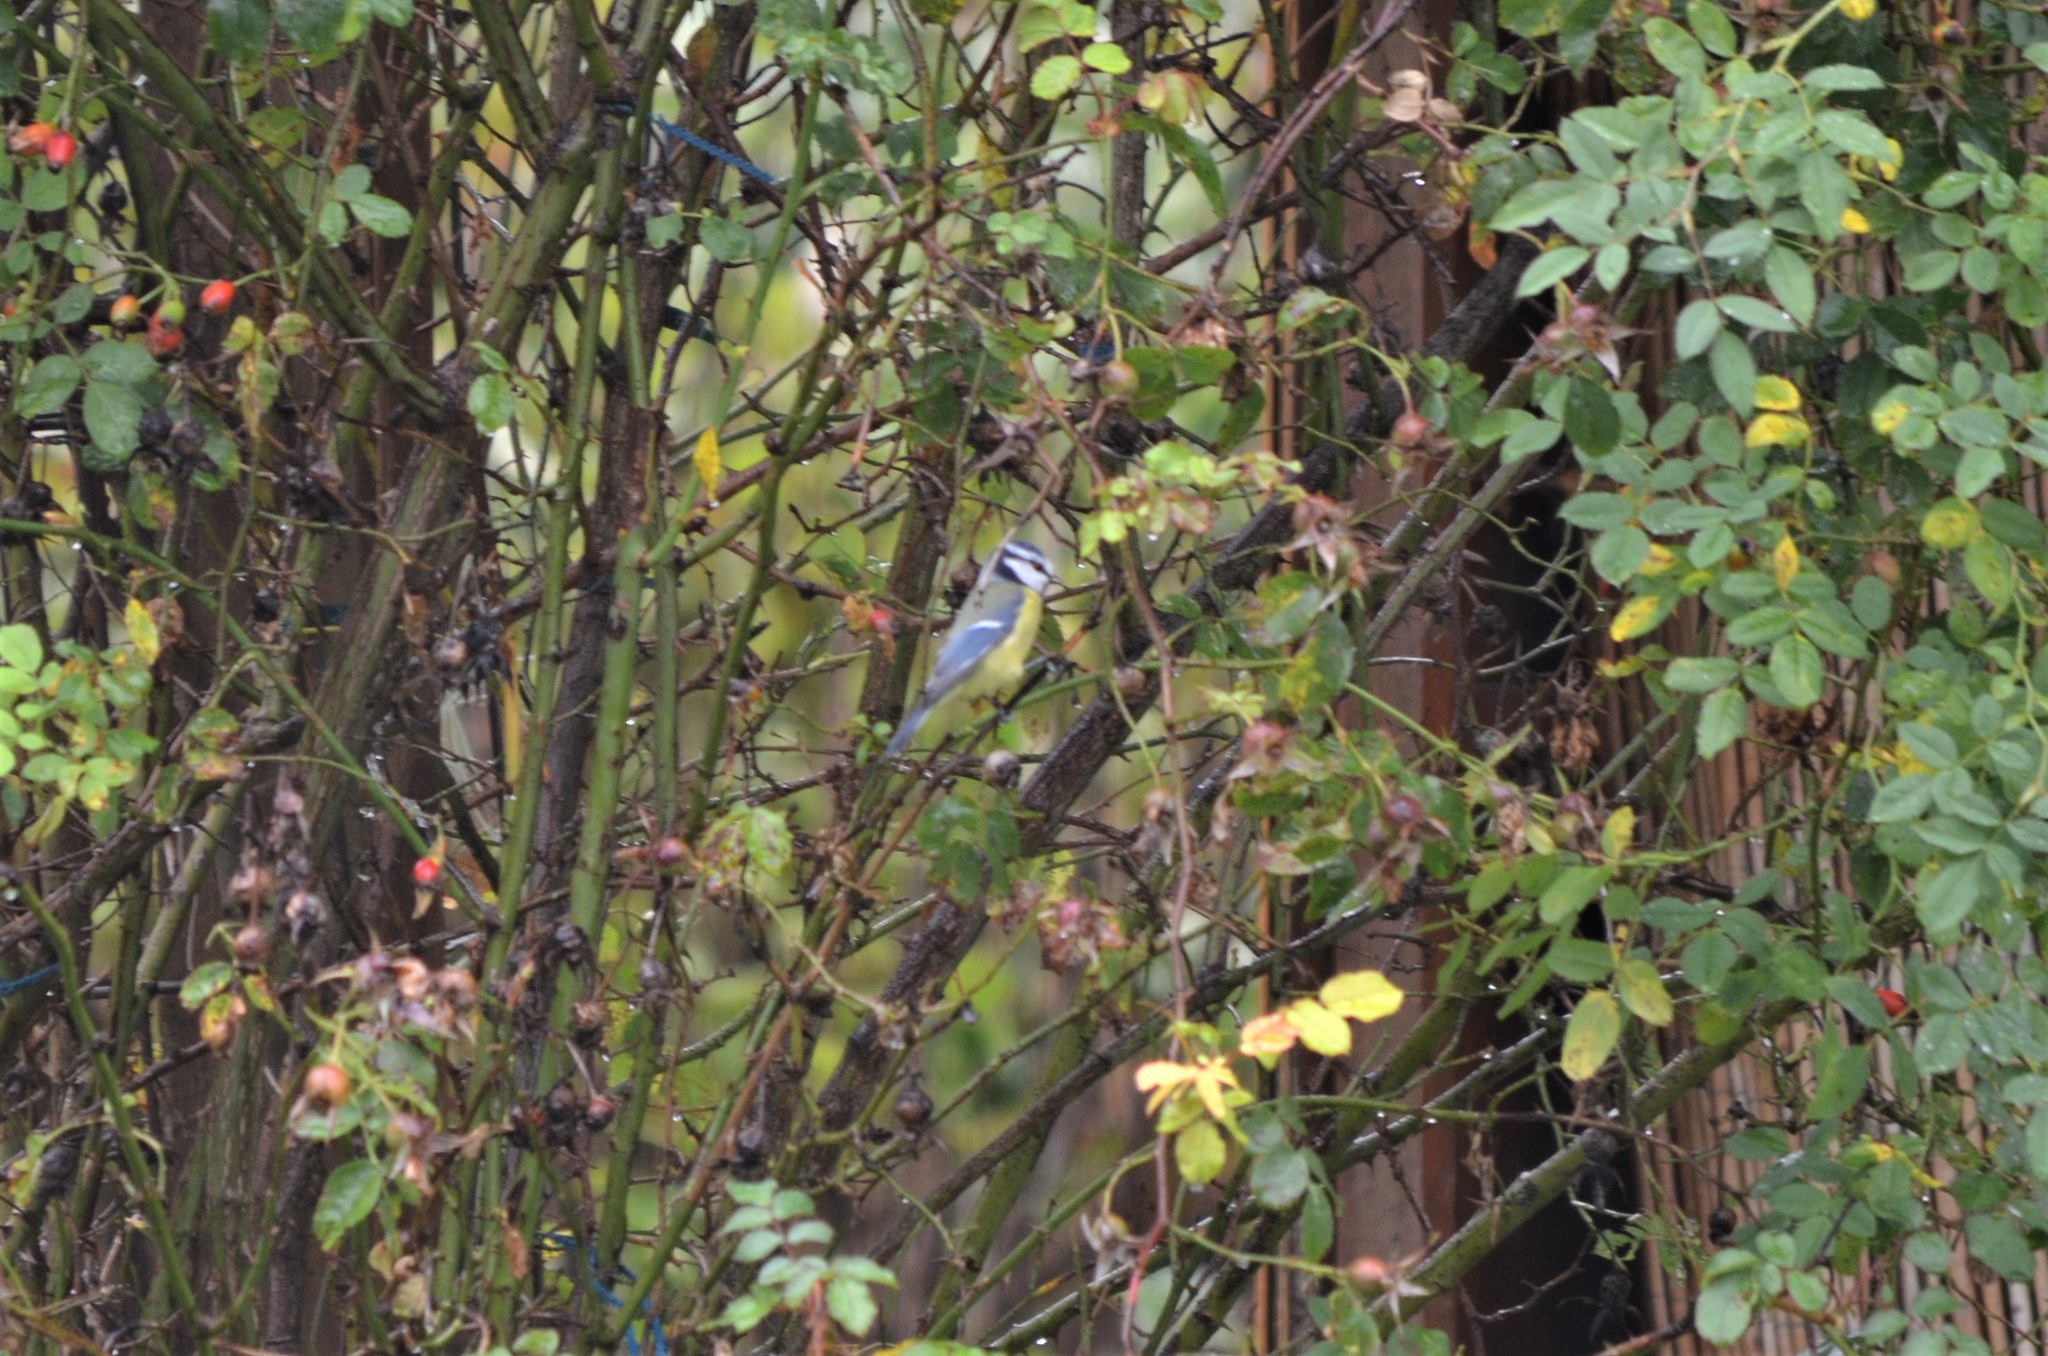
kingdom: Animalia
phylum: Chordata
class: Aves
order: Passeriformes
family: Paridae
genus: Cyanistes
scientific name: Cyanistes caeruleus
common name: Eurasian blue tit
